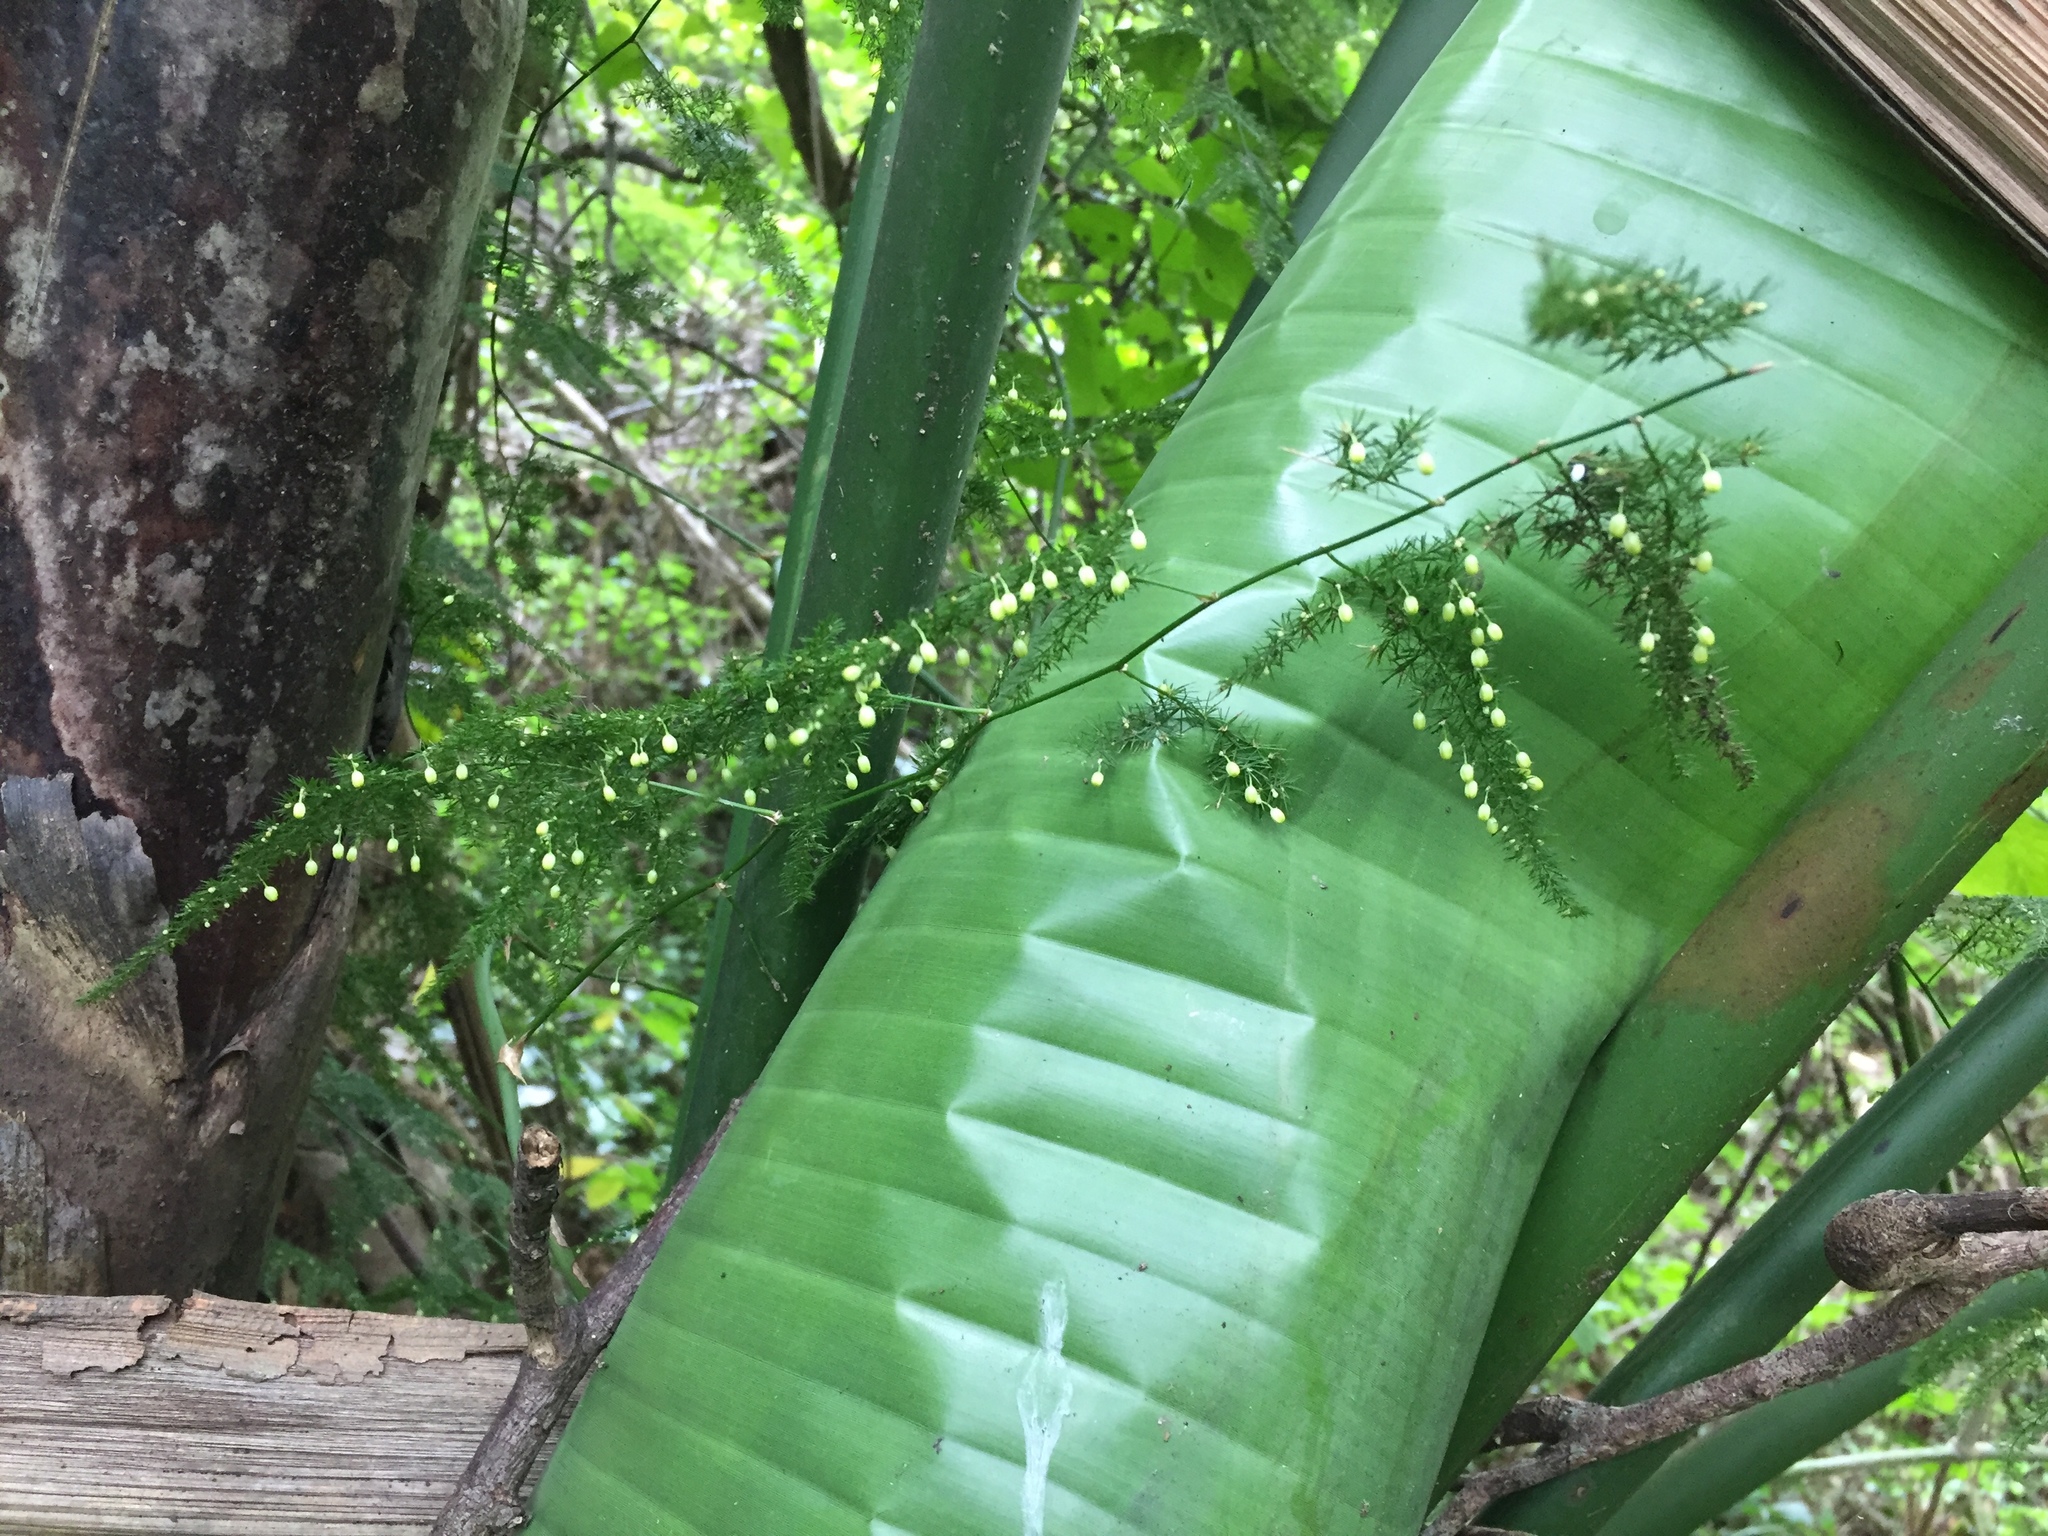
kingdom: Plantae
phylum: Tracheophyta
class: Liliopsida
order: Asparagales
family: Asparagaceae
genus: Asparagus
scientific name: Asparagus setaceus
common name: Common asparagus fern
